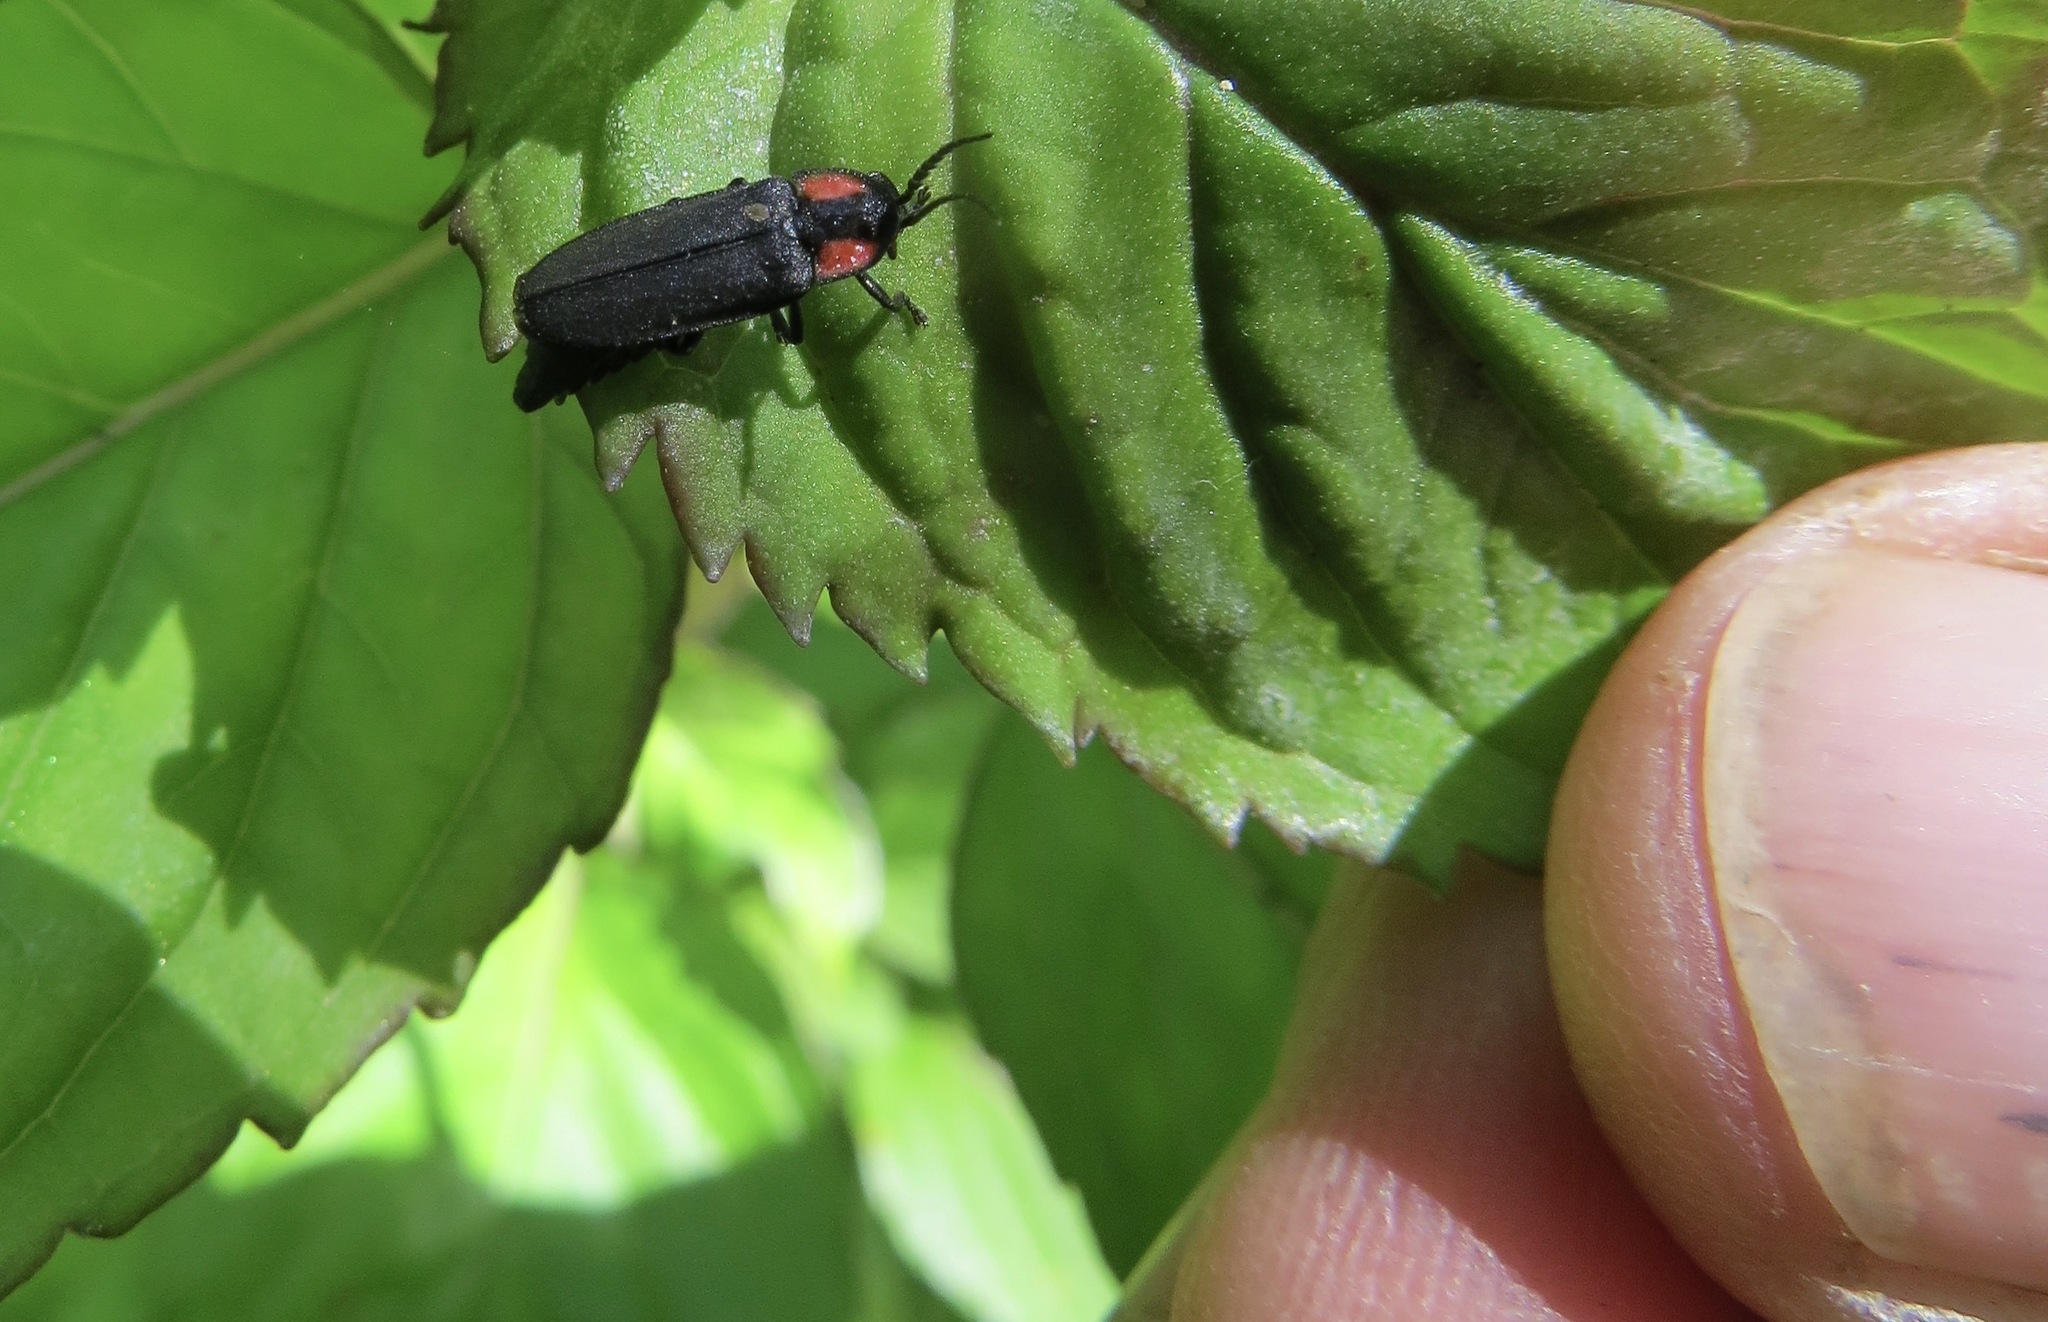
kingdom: Animalia
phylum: Arthropoda
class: Insecta
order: Coleoptera
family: Lampyridae
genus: Pyropyga
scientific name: Pyropyga nigricans
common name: Dark firefly
